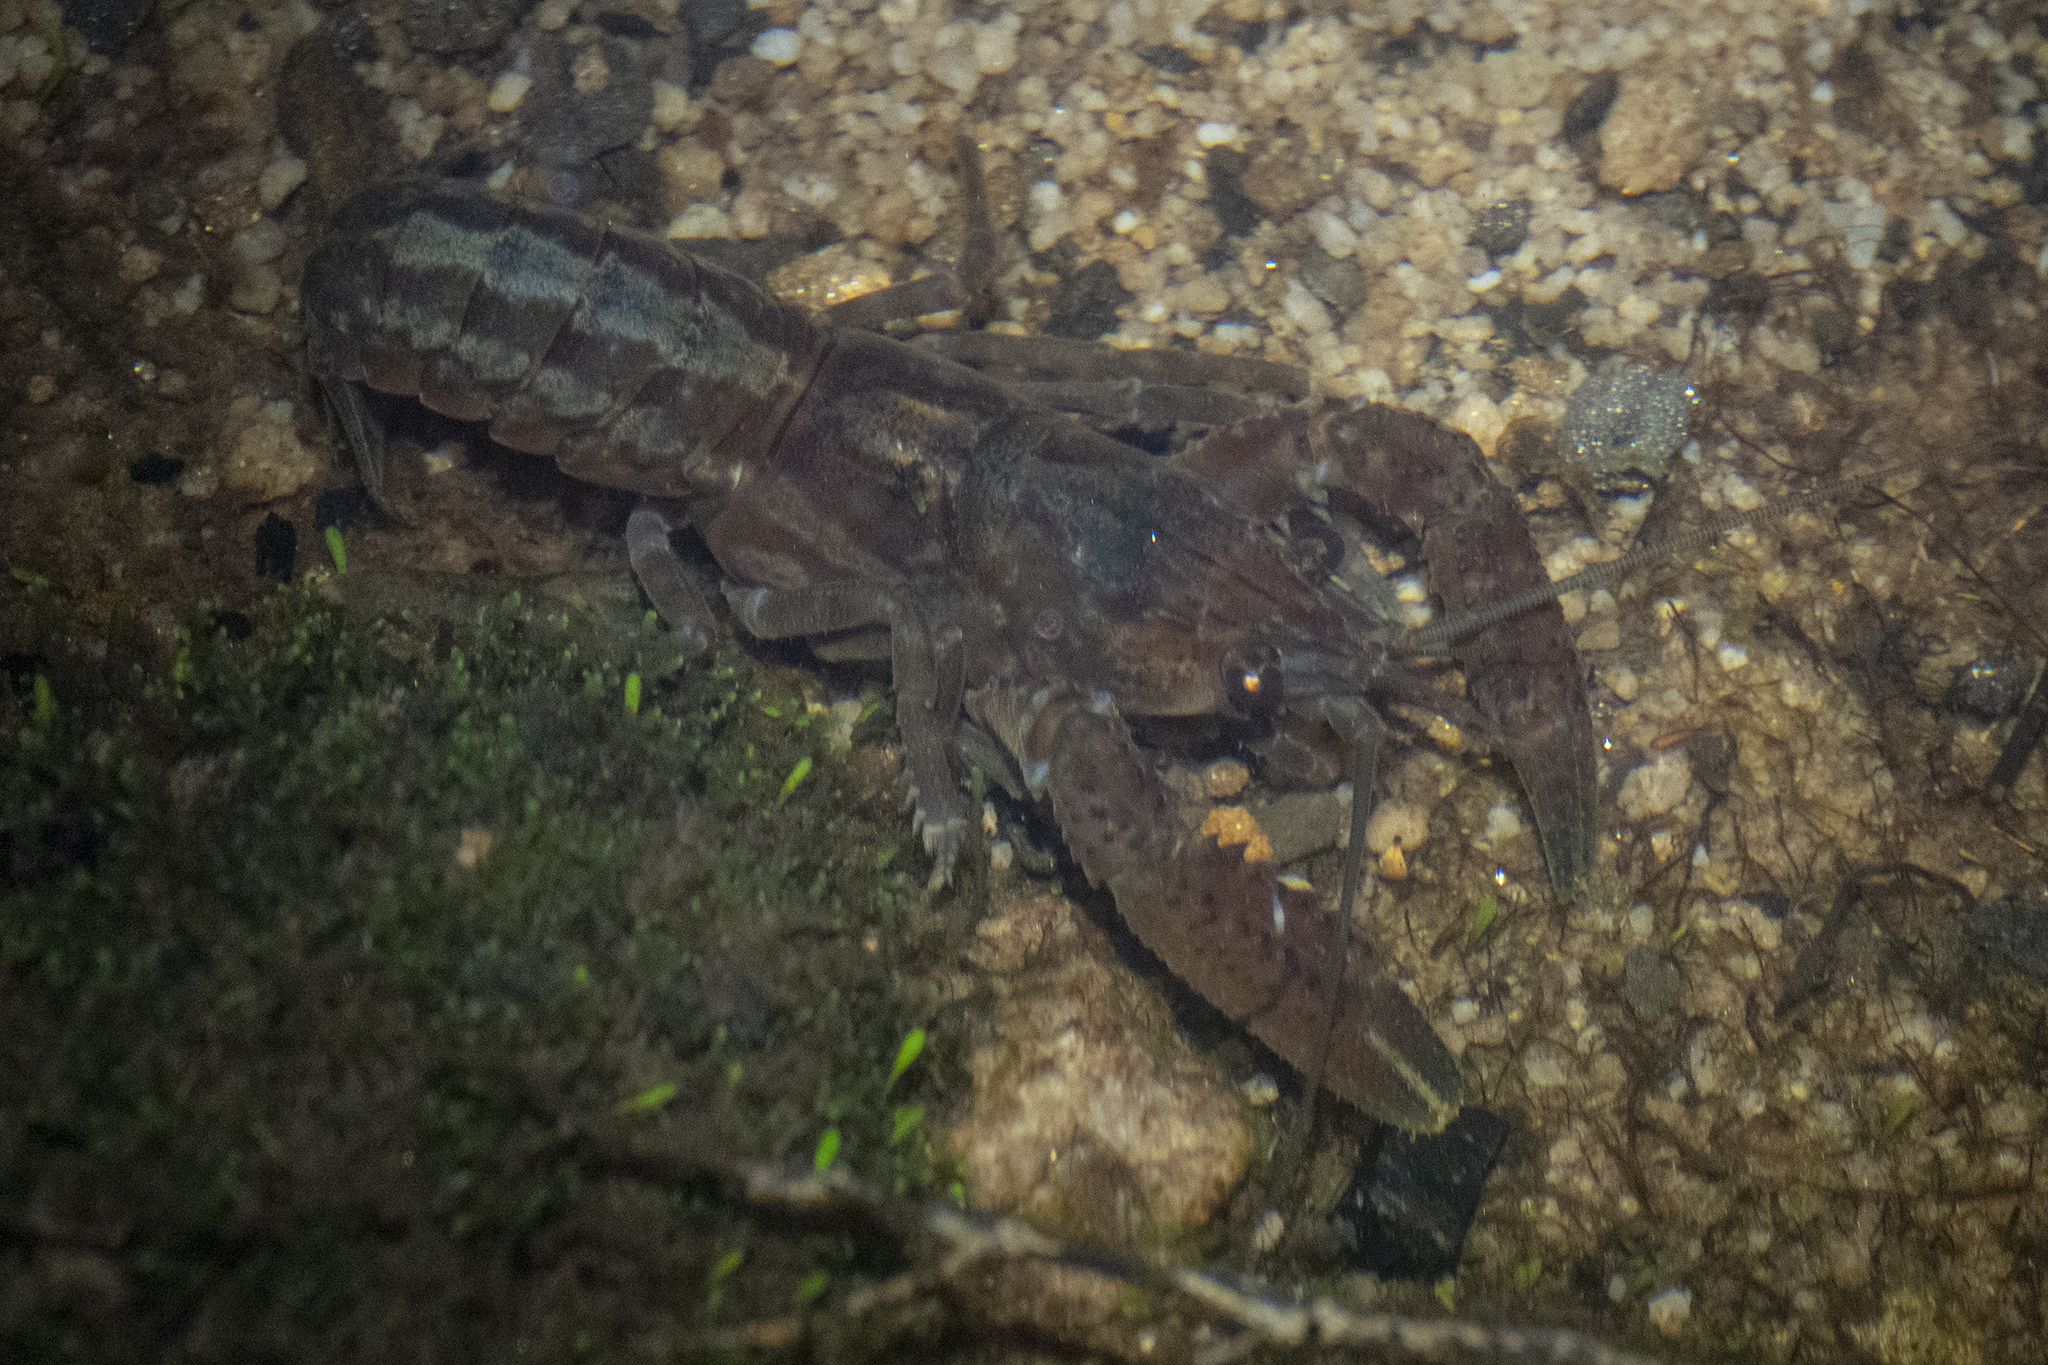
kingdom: Animalia
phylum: Arthropoda
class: Malacostraca
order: Decapoda
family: Parastacidae
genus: Paranephrops
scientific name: Paranephrops planifrons
